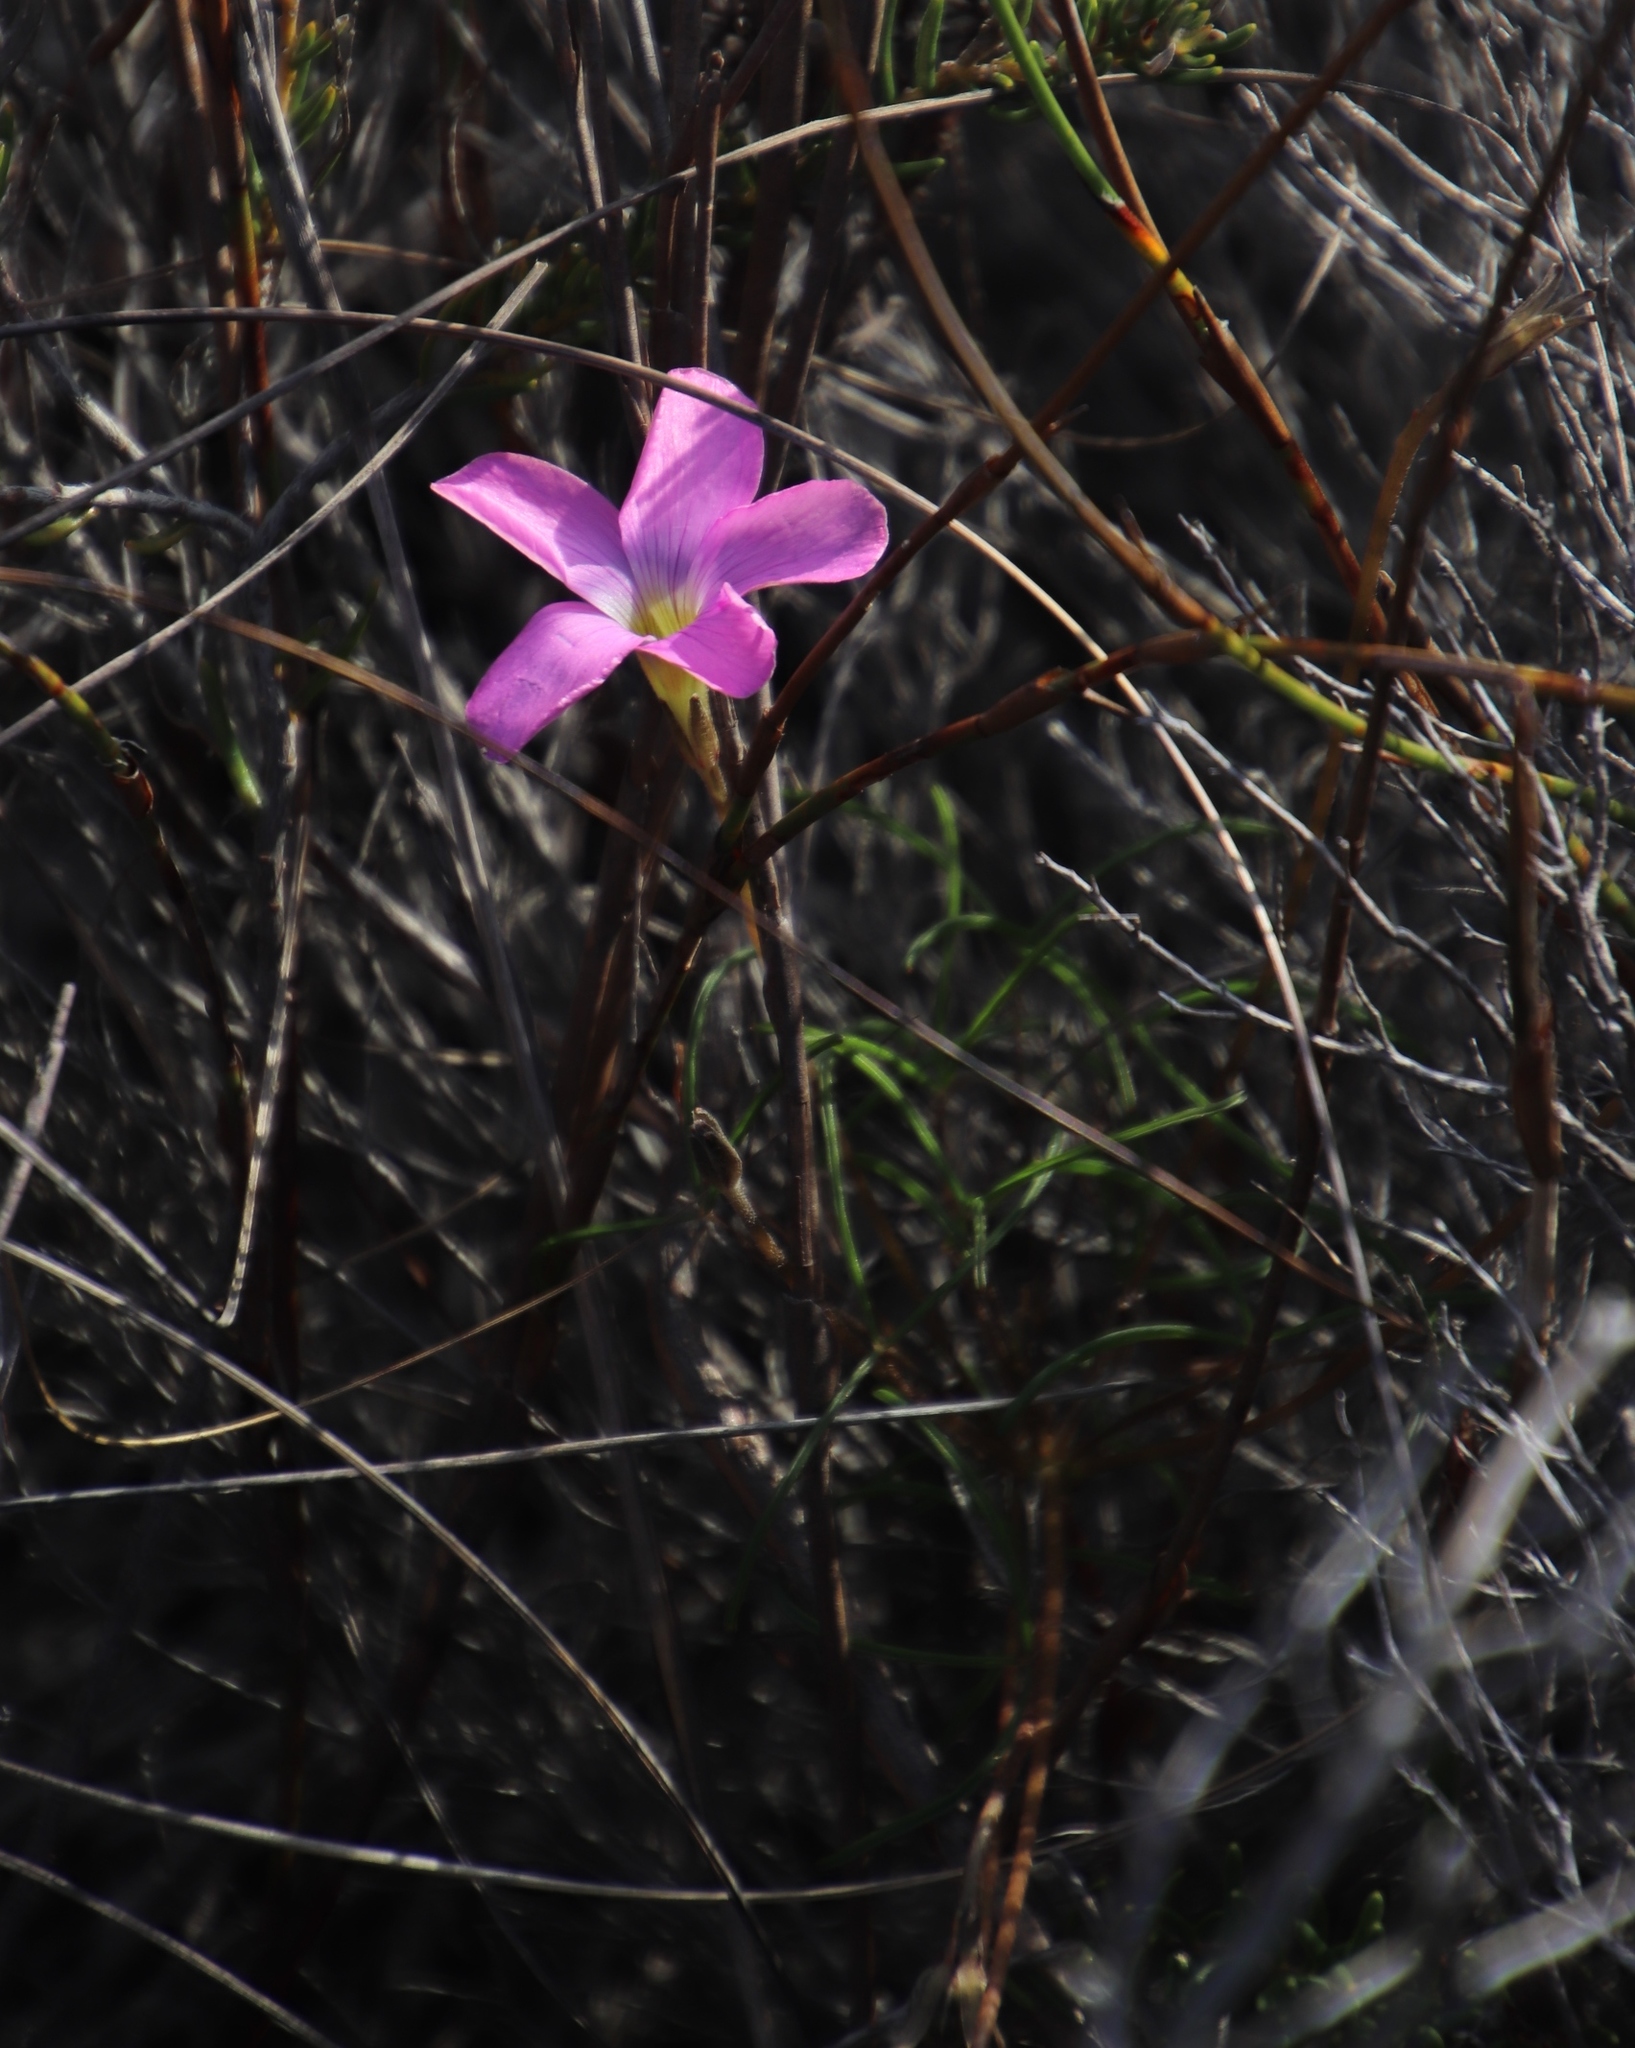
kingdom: Plantae
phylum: Tracheophyta
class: Magnoliopsida
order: Oxalidales
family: Oxalidaceae
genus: Oxalis
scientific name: Oxalis polyphylla
